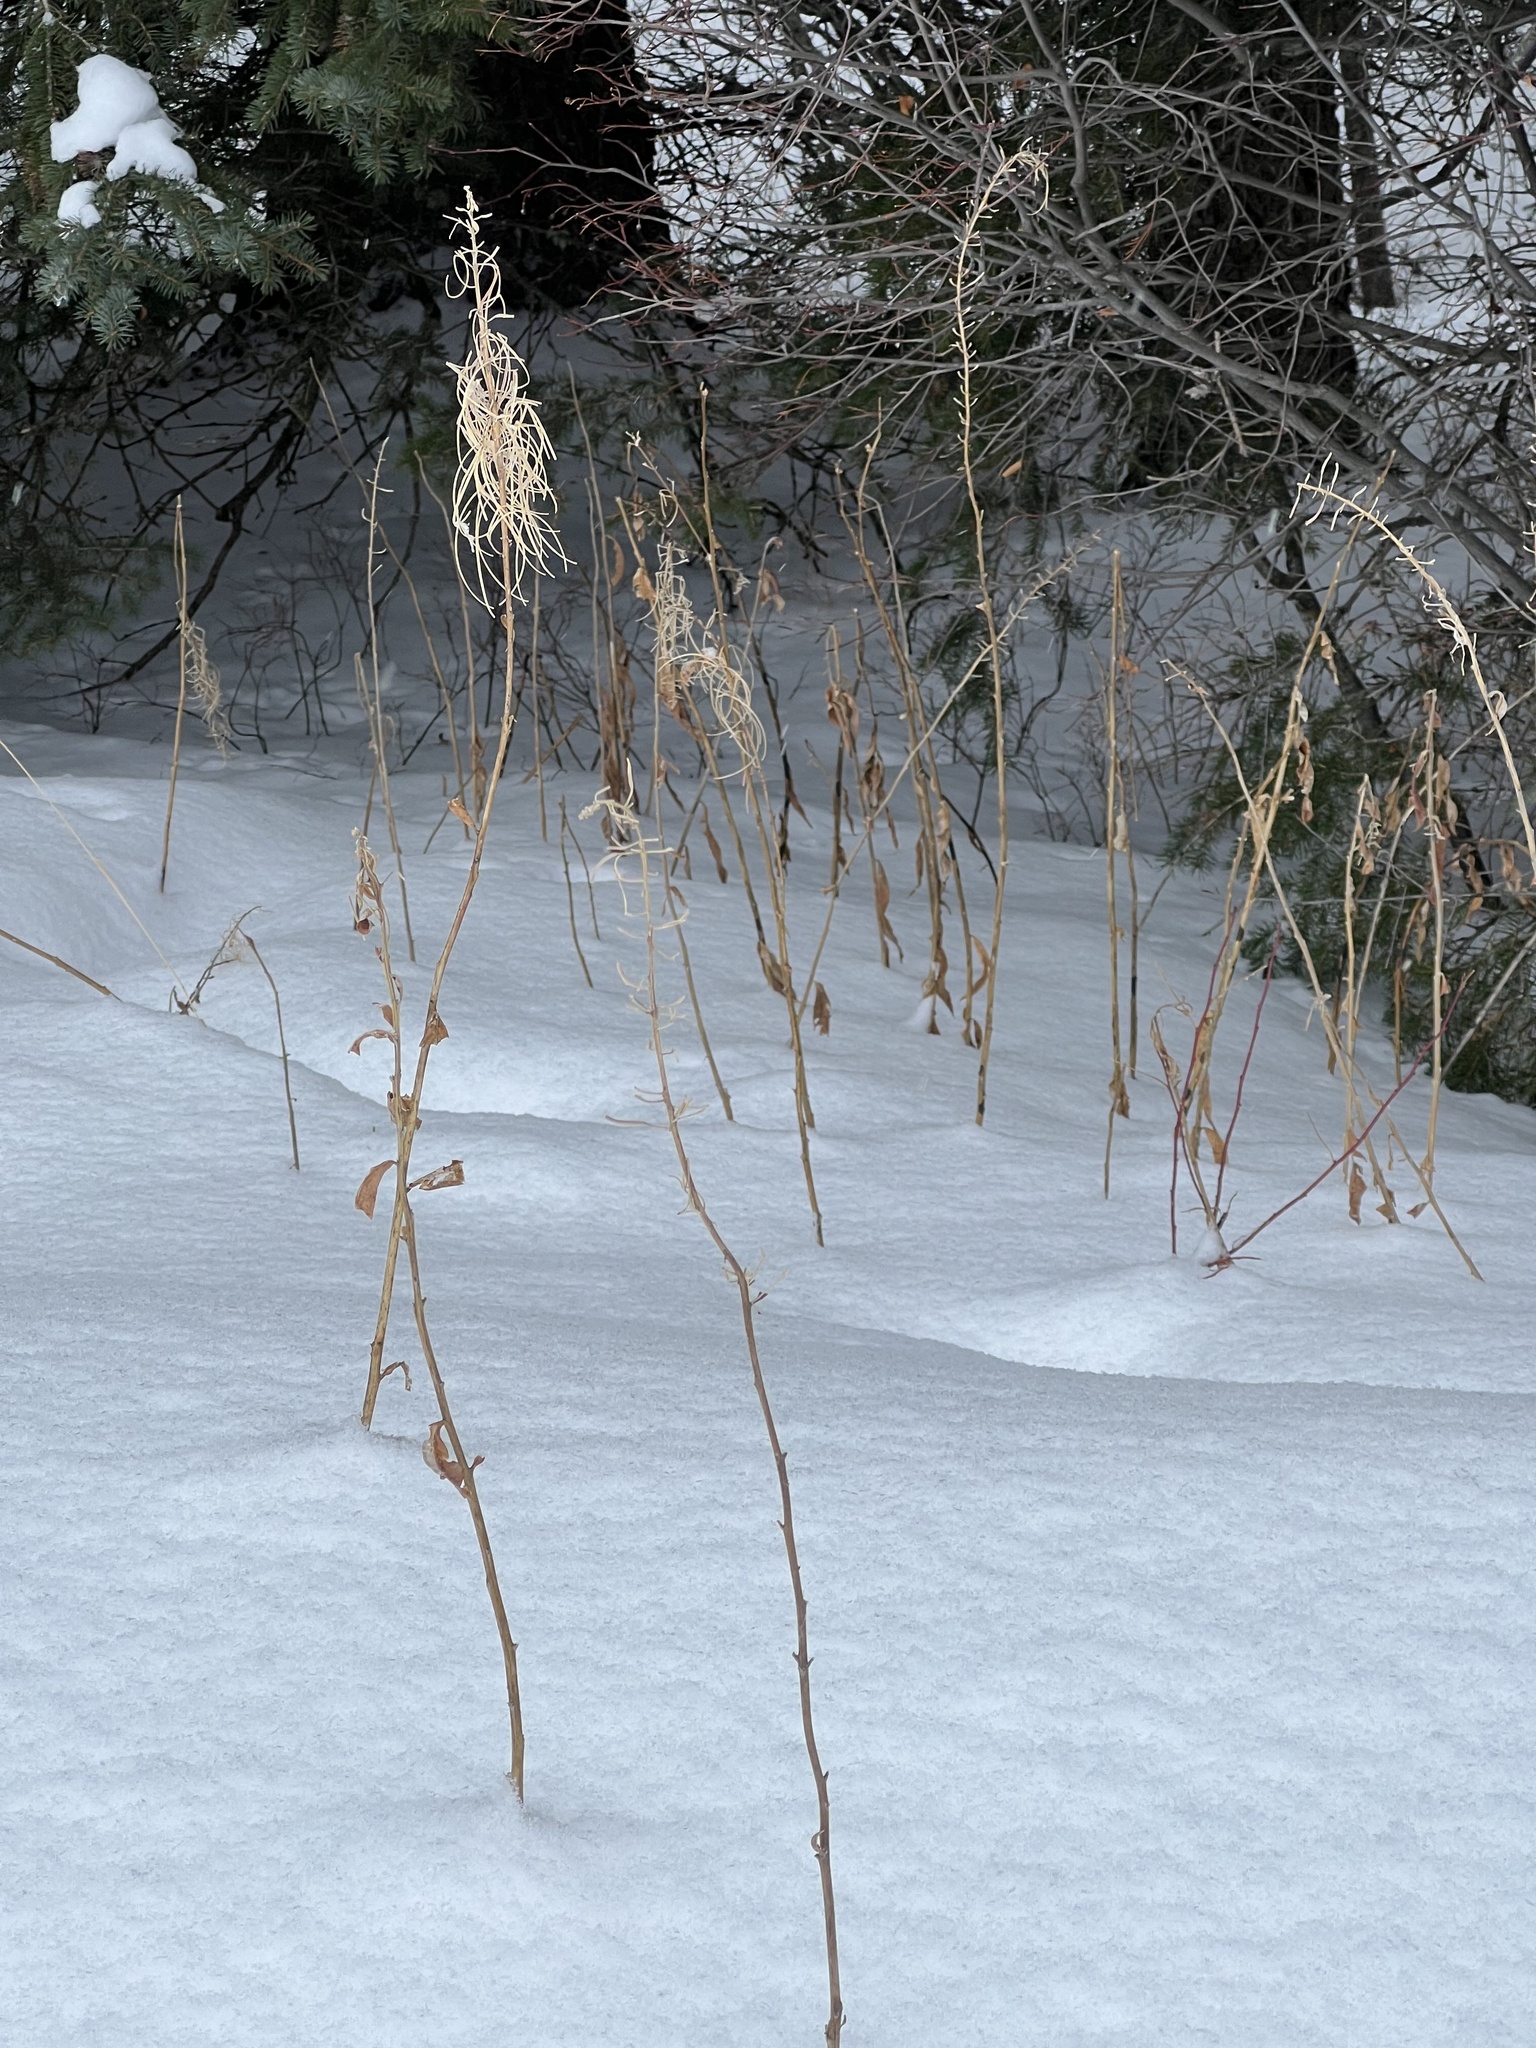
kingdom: Plantae
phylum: Tracheophyta
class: Magnoliopsida
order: Myrtales
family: Onagraceae
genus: Chamaenerion
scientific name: Chamaenerion angustifolium
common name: Fireweed
